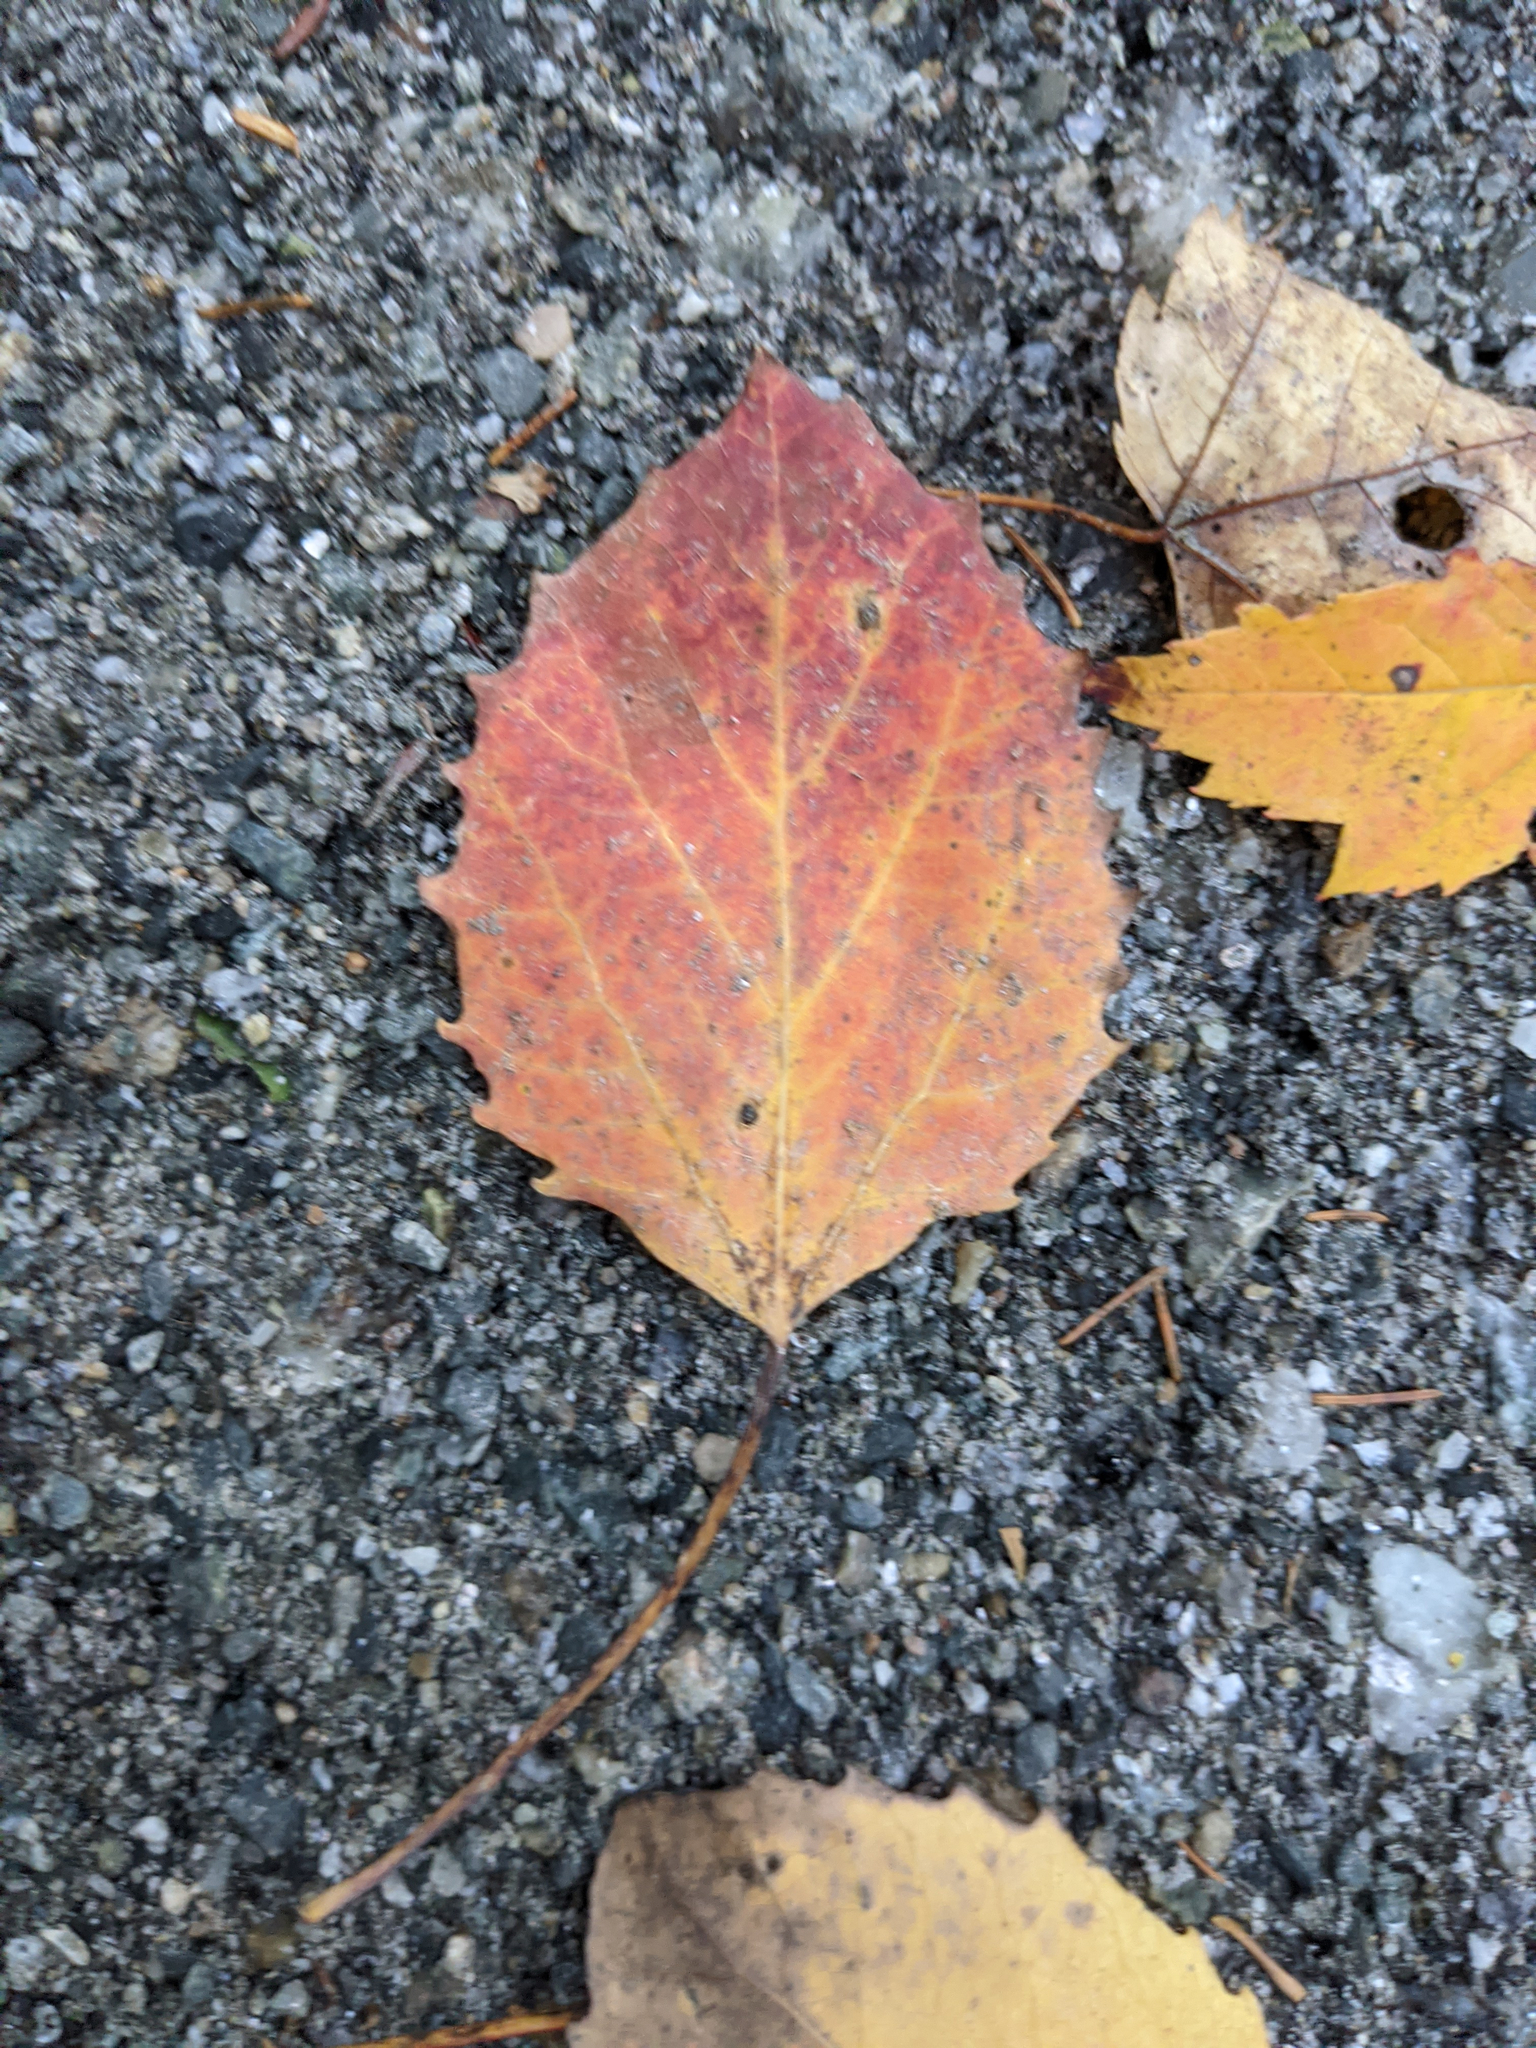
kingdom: Plantae
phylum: Tracheophyta
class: Magnoliopsida
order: Malpighiales
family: Salicaceae
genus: Populus
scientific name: Populus grandidentata
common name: Bigtooth aspen
